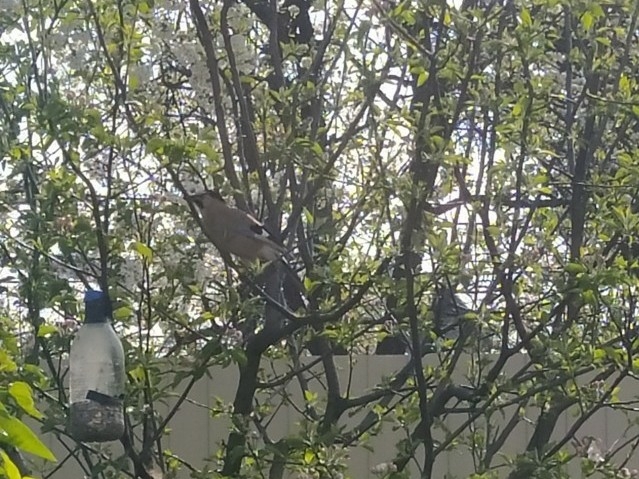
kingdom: Animalia
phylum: Chordata
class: Aves
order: Passeriformes
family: Corvidae
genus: Garrulus
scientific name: Garrulus glandarius
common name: Eurasian jay
